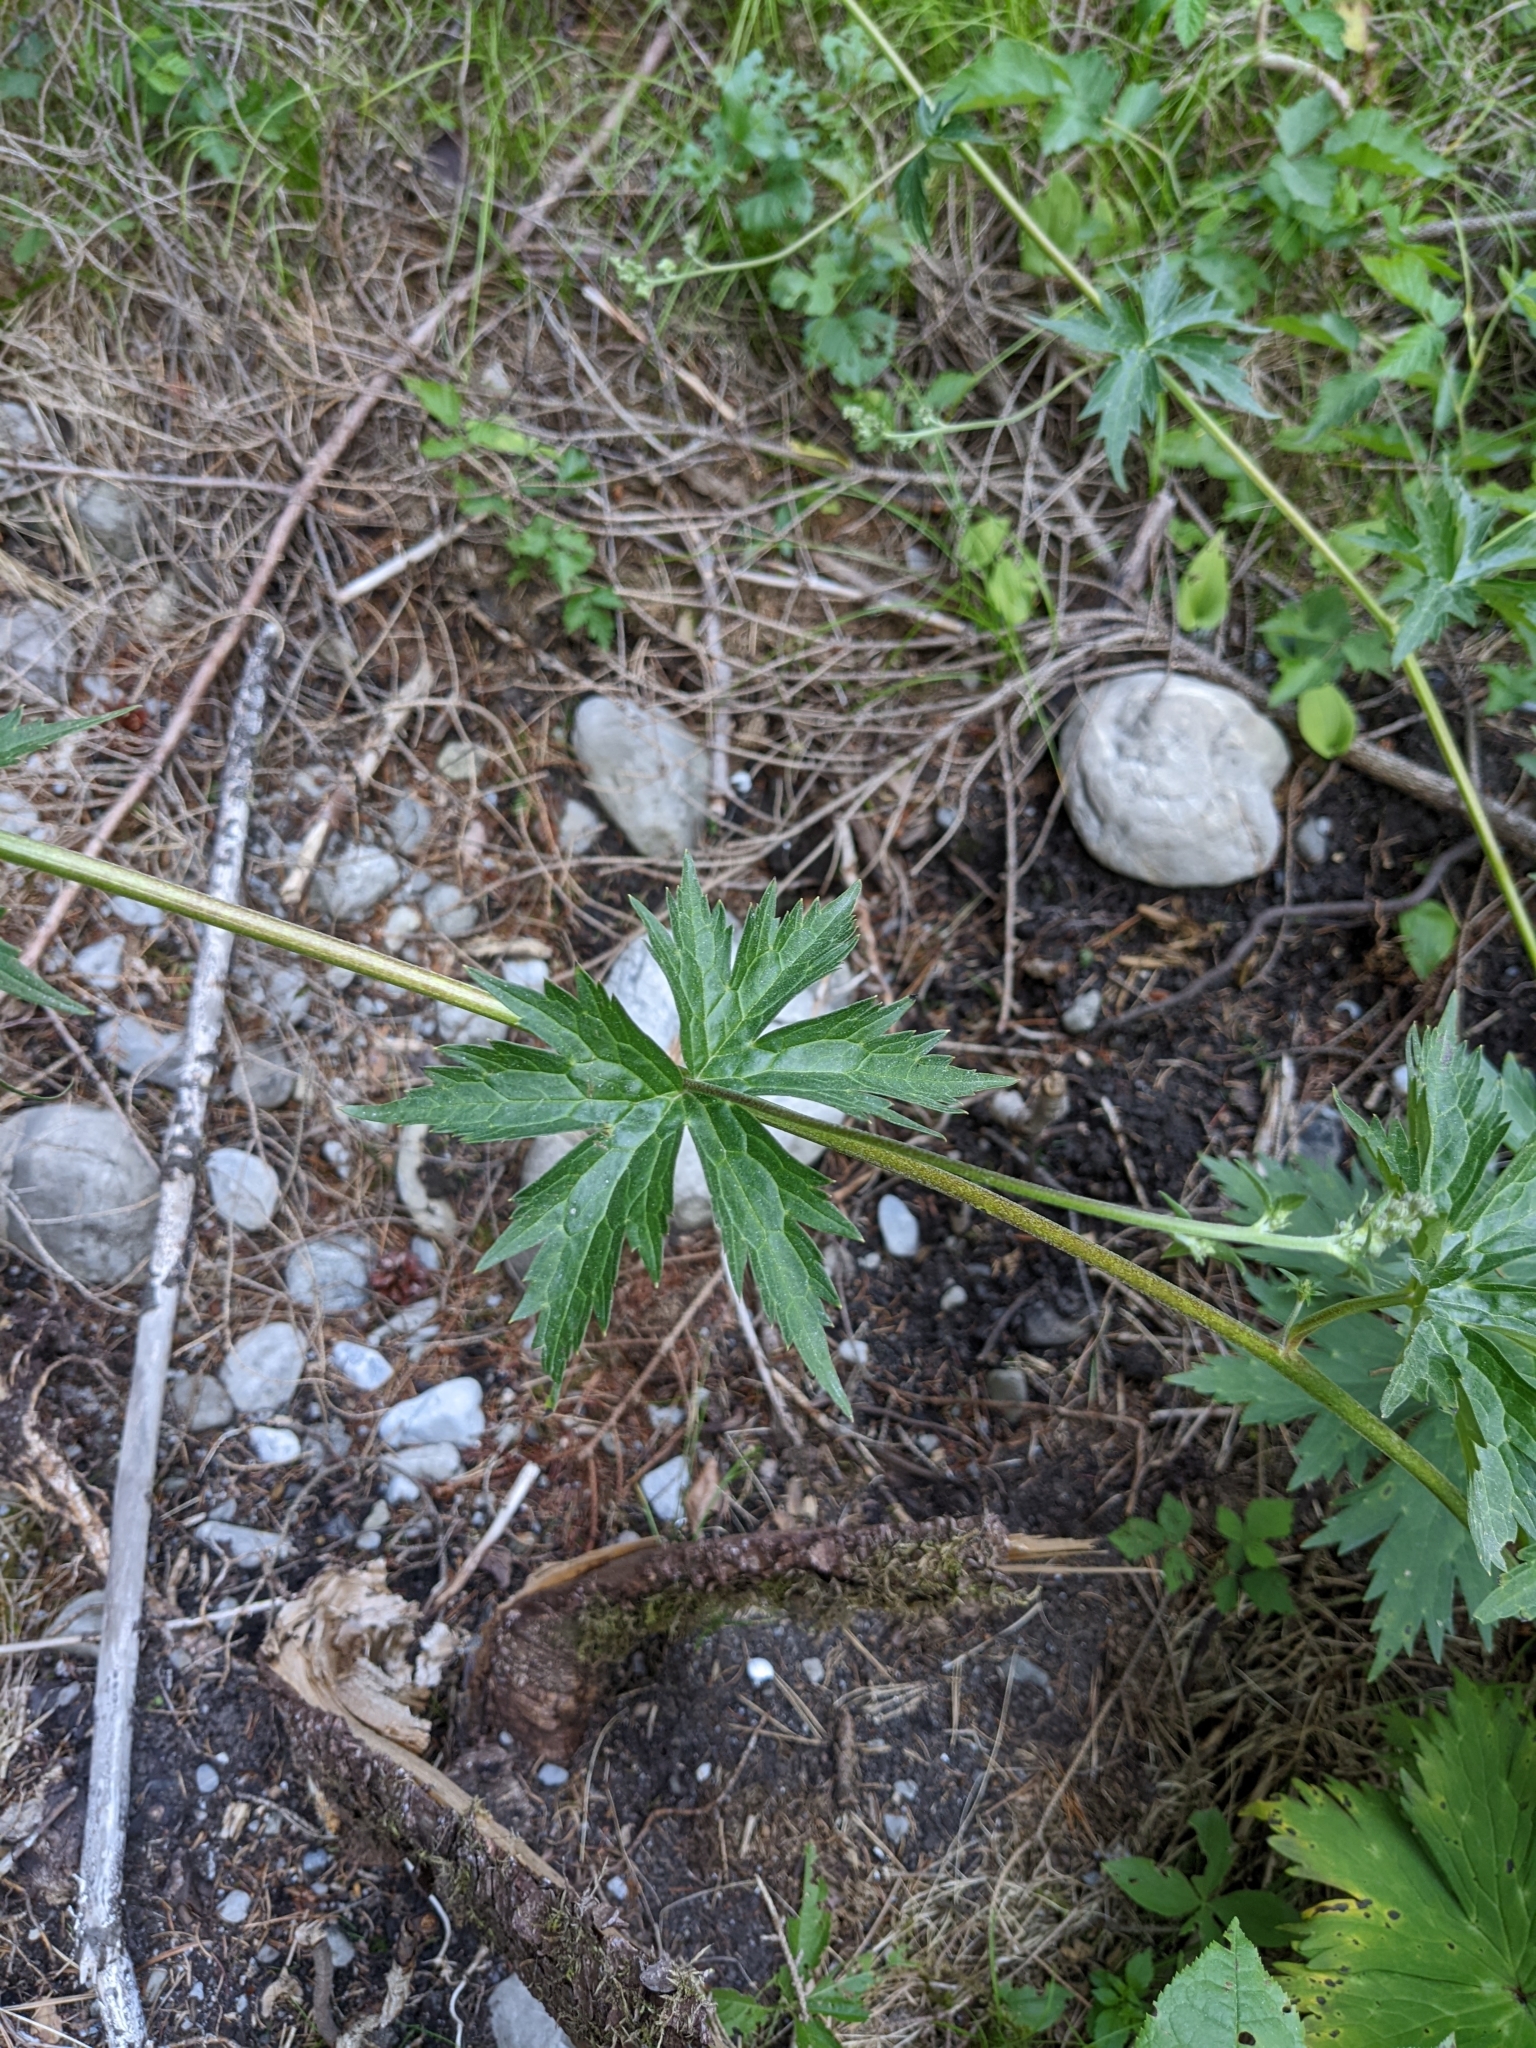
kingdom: Plantae
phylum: Tracheophyta
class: Magnoliopsida
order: Ranunculales
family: Ranunculaceae
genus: Aconitum
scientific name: Aconitum lycoctonum
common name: Wolf's-bane
